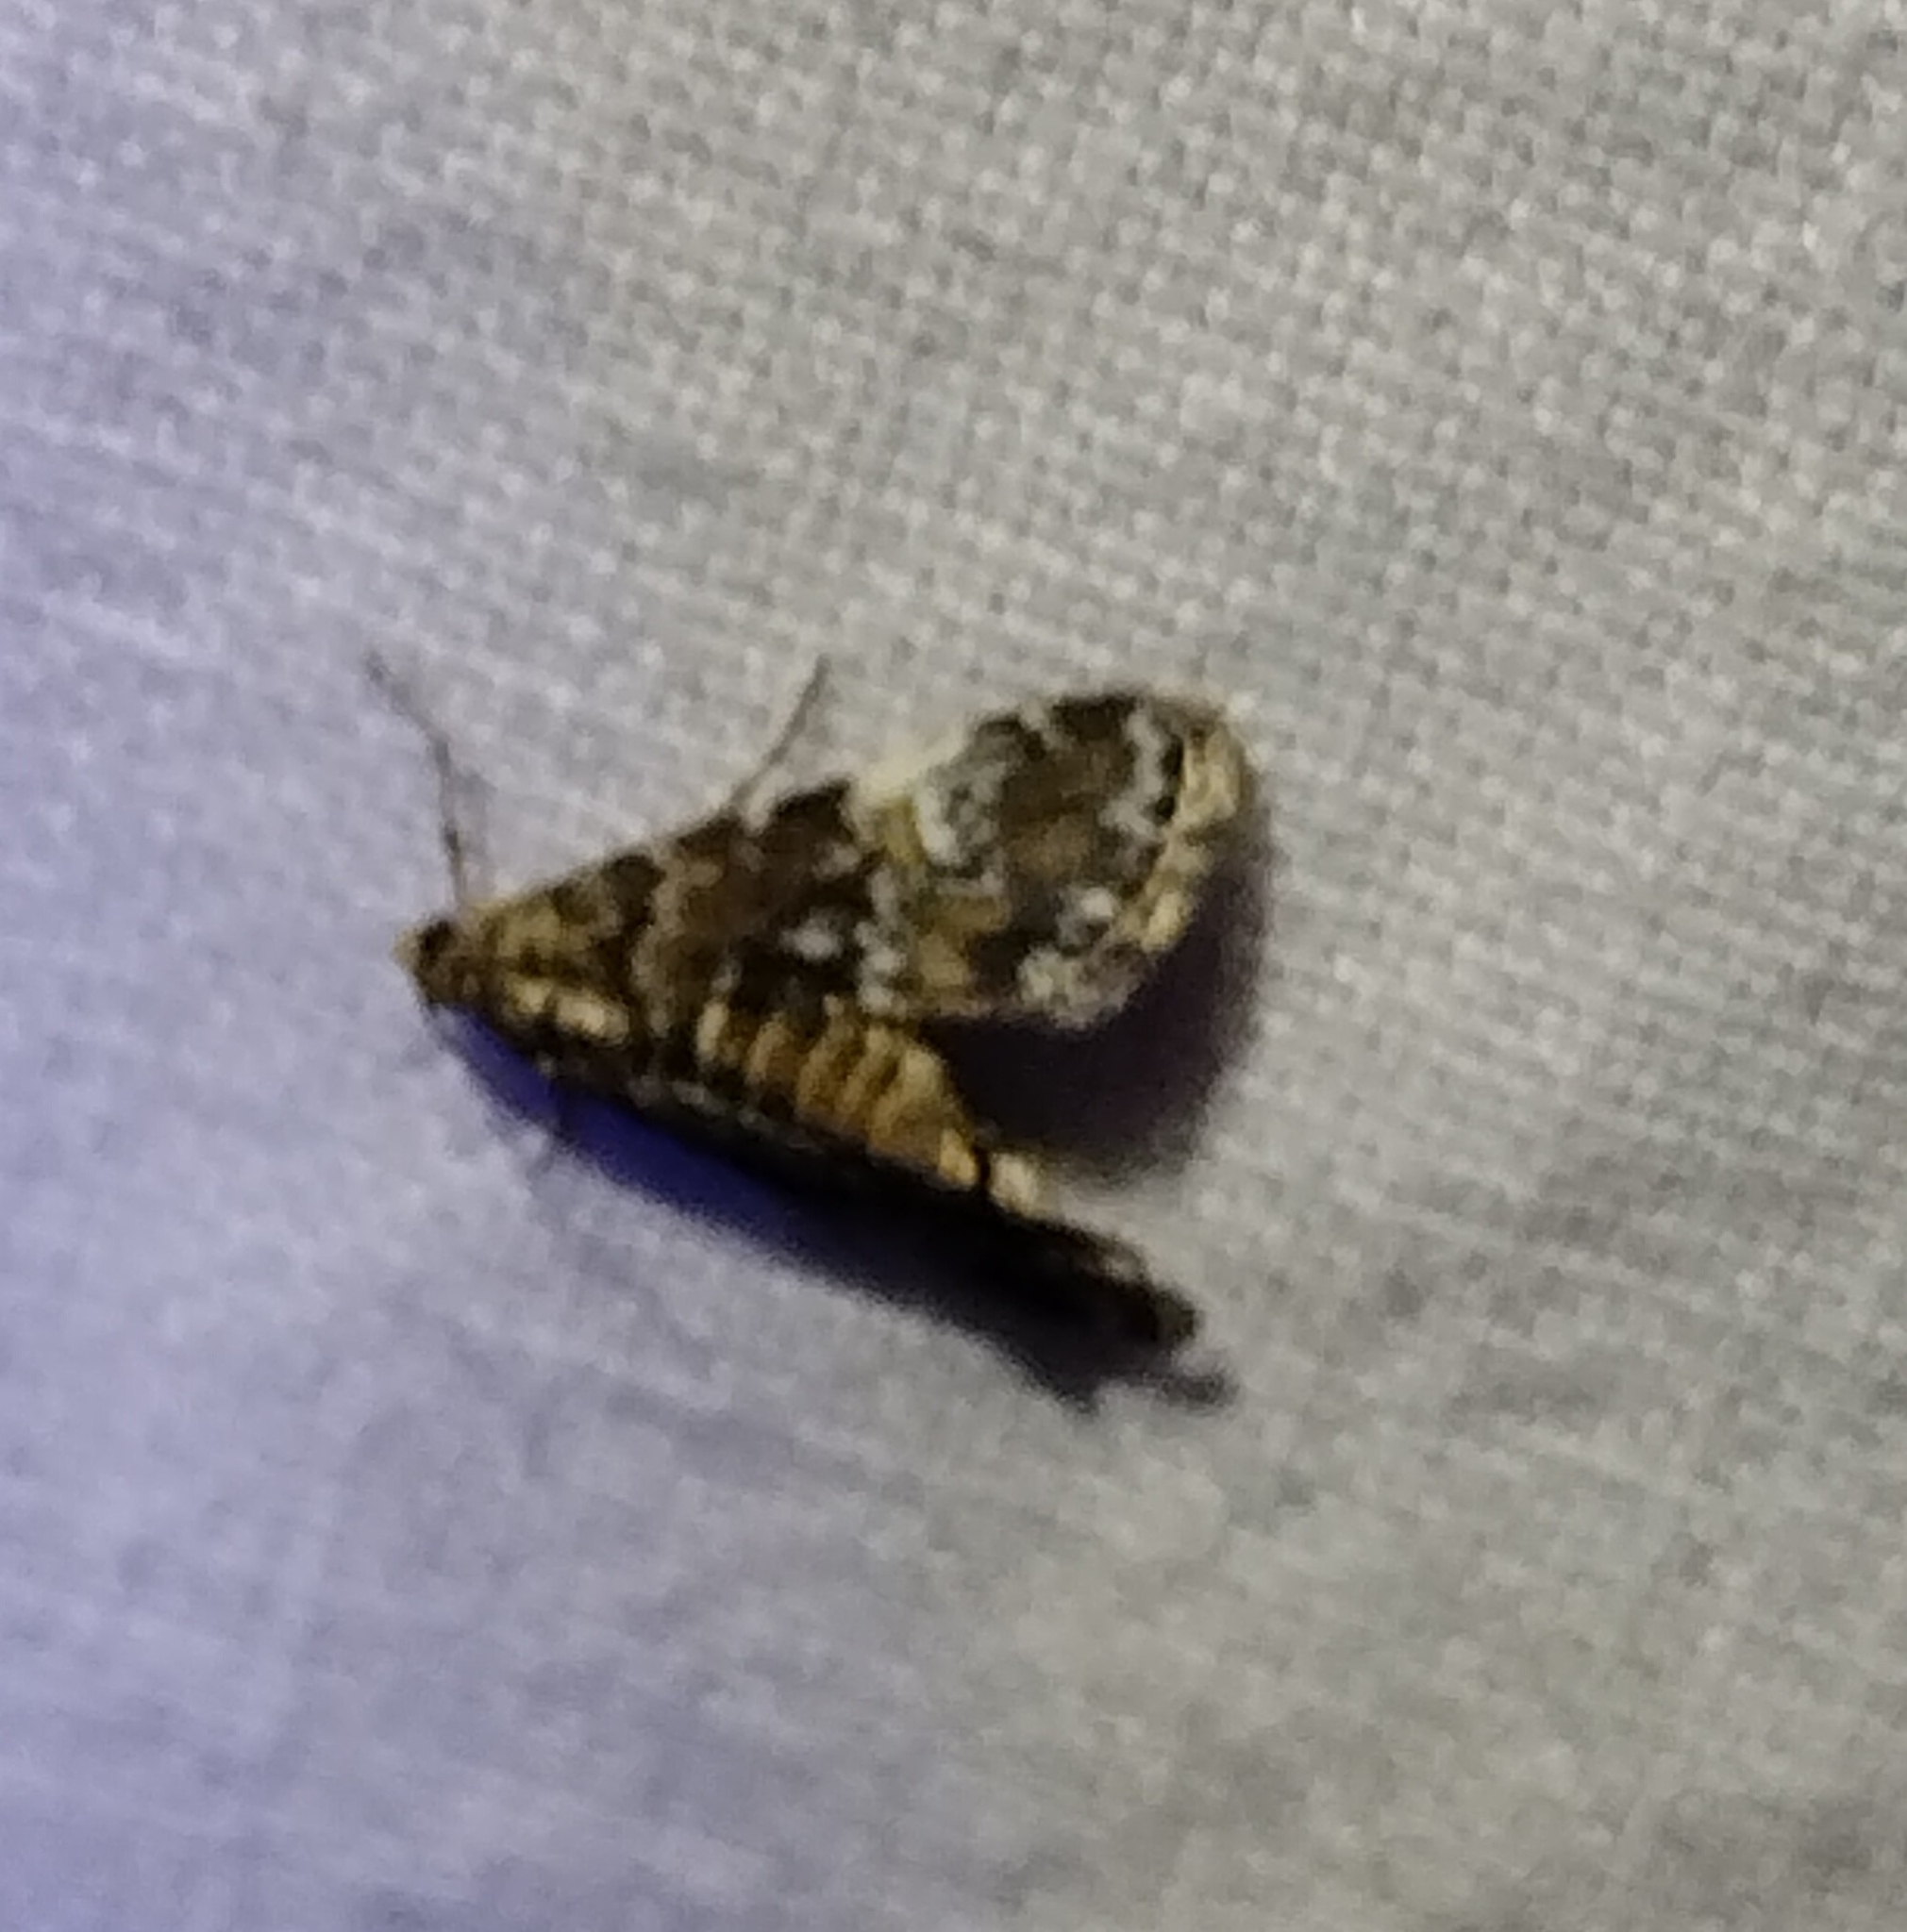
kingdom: Animalia
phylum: Arthropoda
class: Insecta
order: Lepidoptera
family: Crambidae
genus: Elophila
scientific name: Elophila obliteralis
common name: Waterlily leafcutter moth
